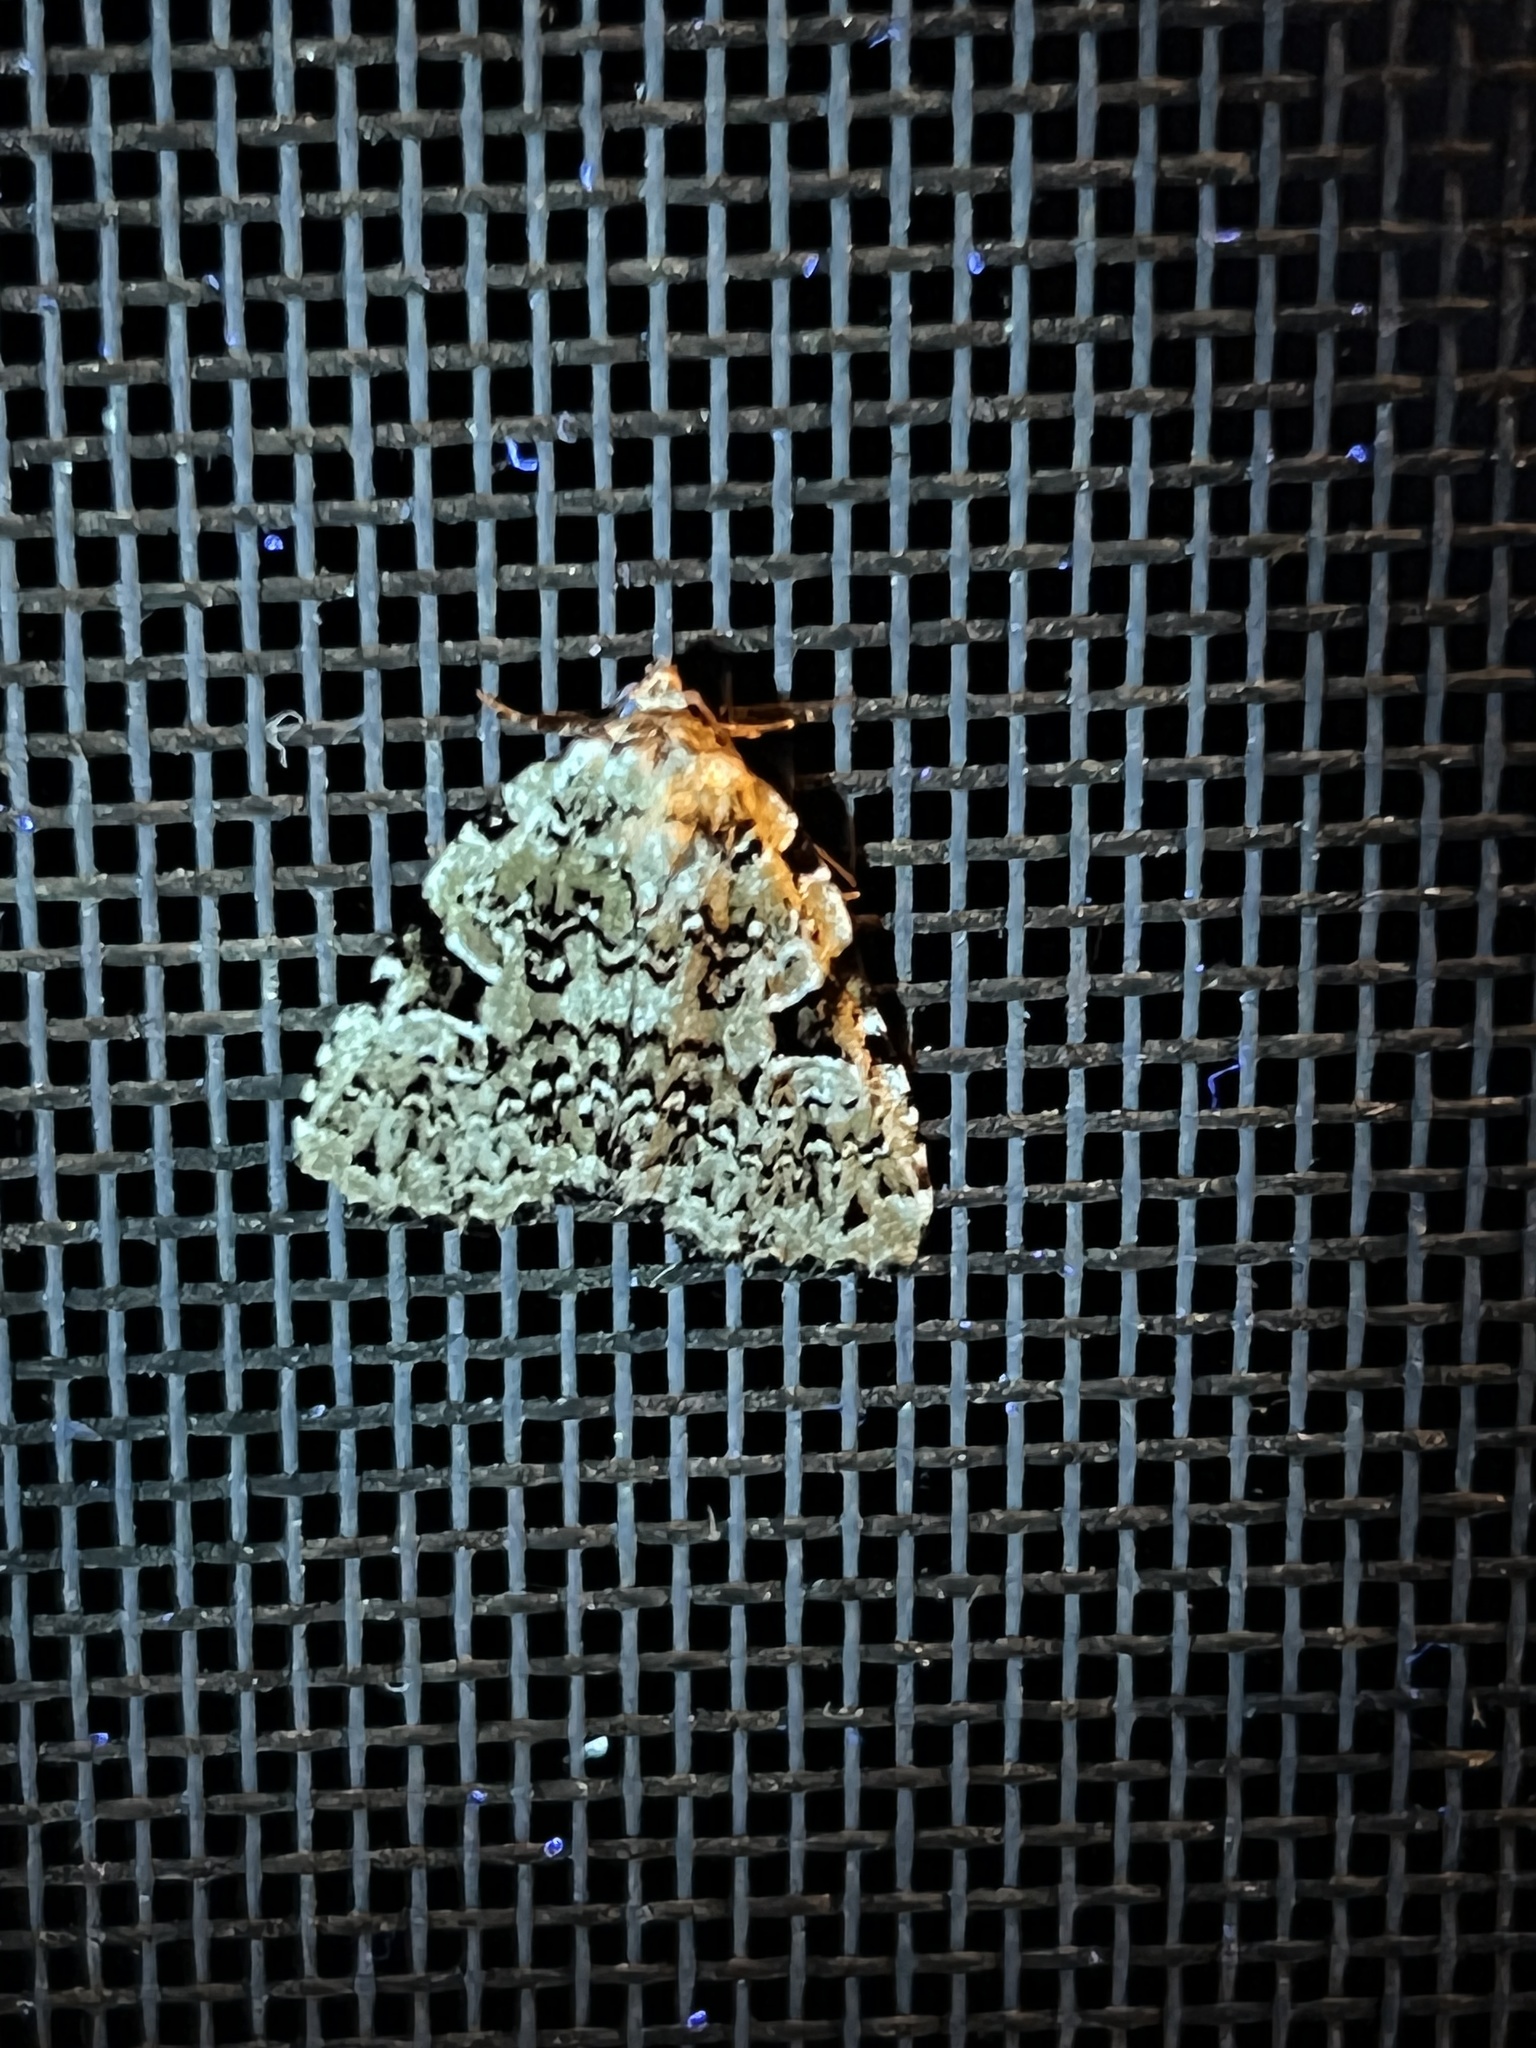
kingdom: Animalia
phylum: Arthropoda
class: Insecta
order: Lepidoptera
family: Noctuidae
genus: Leuconycta
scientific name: Leuconycta diphteroides
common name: Green leuconycta moth
